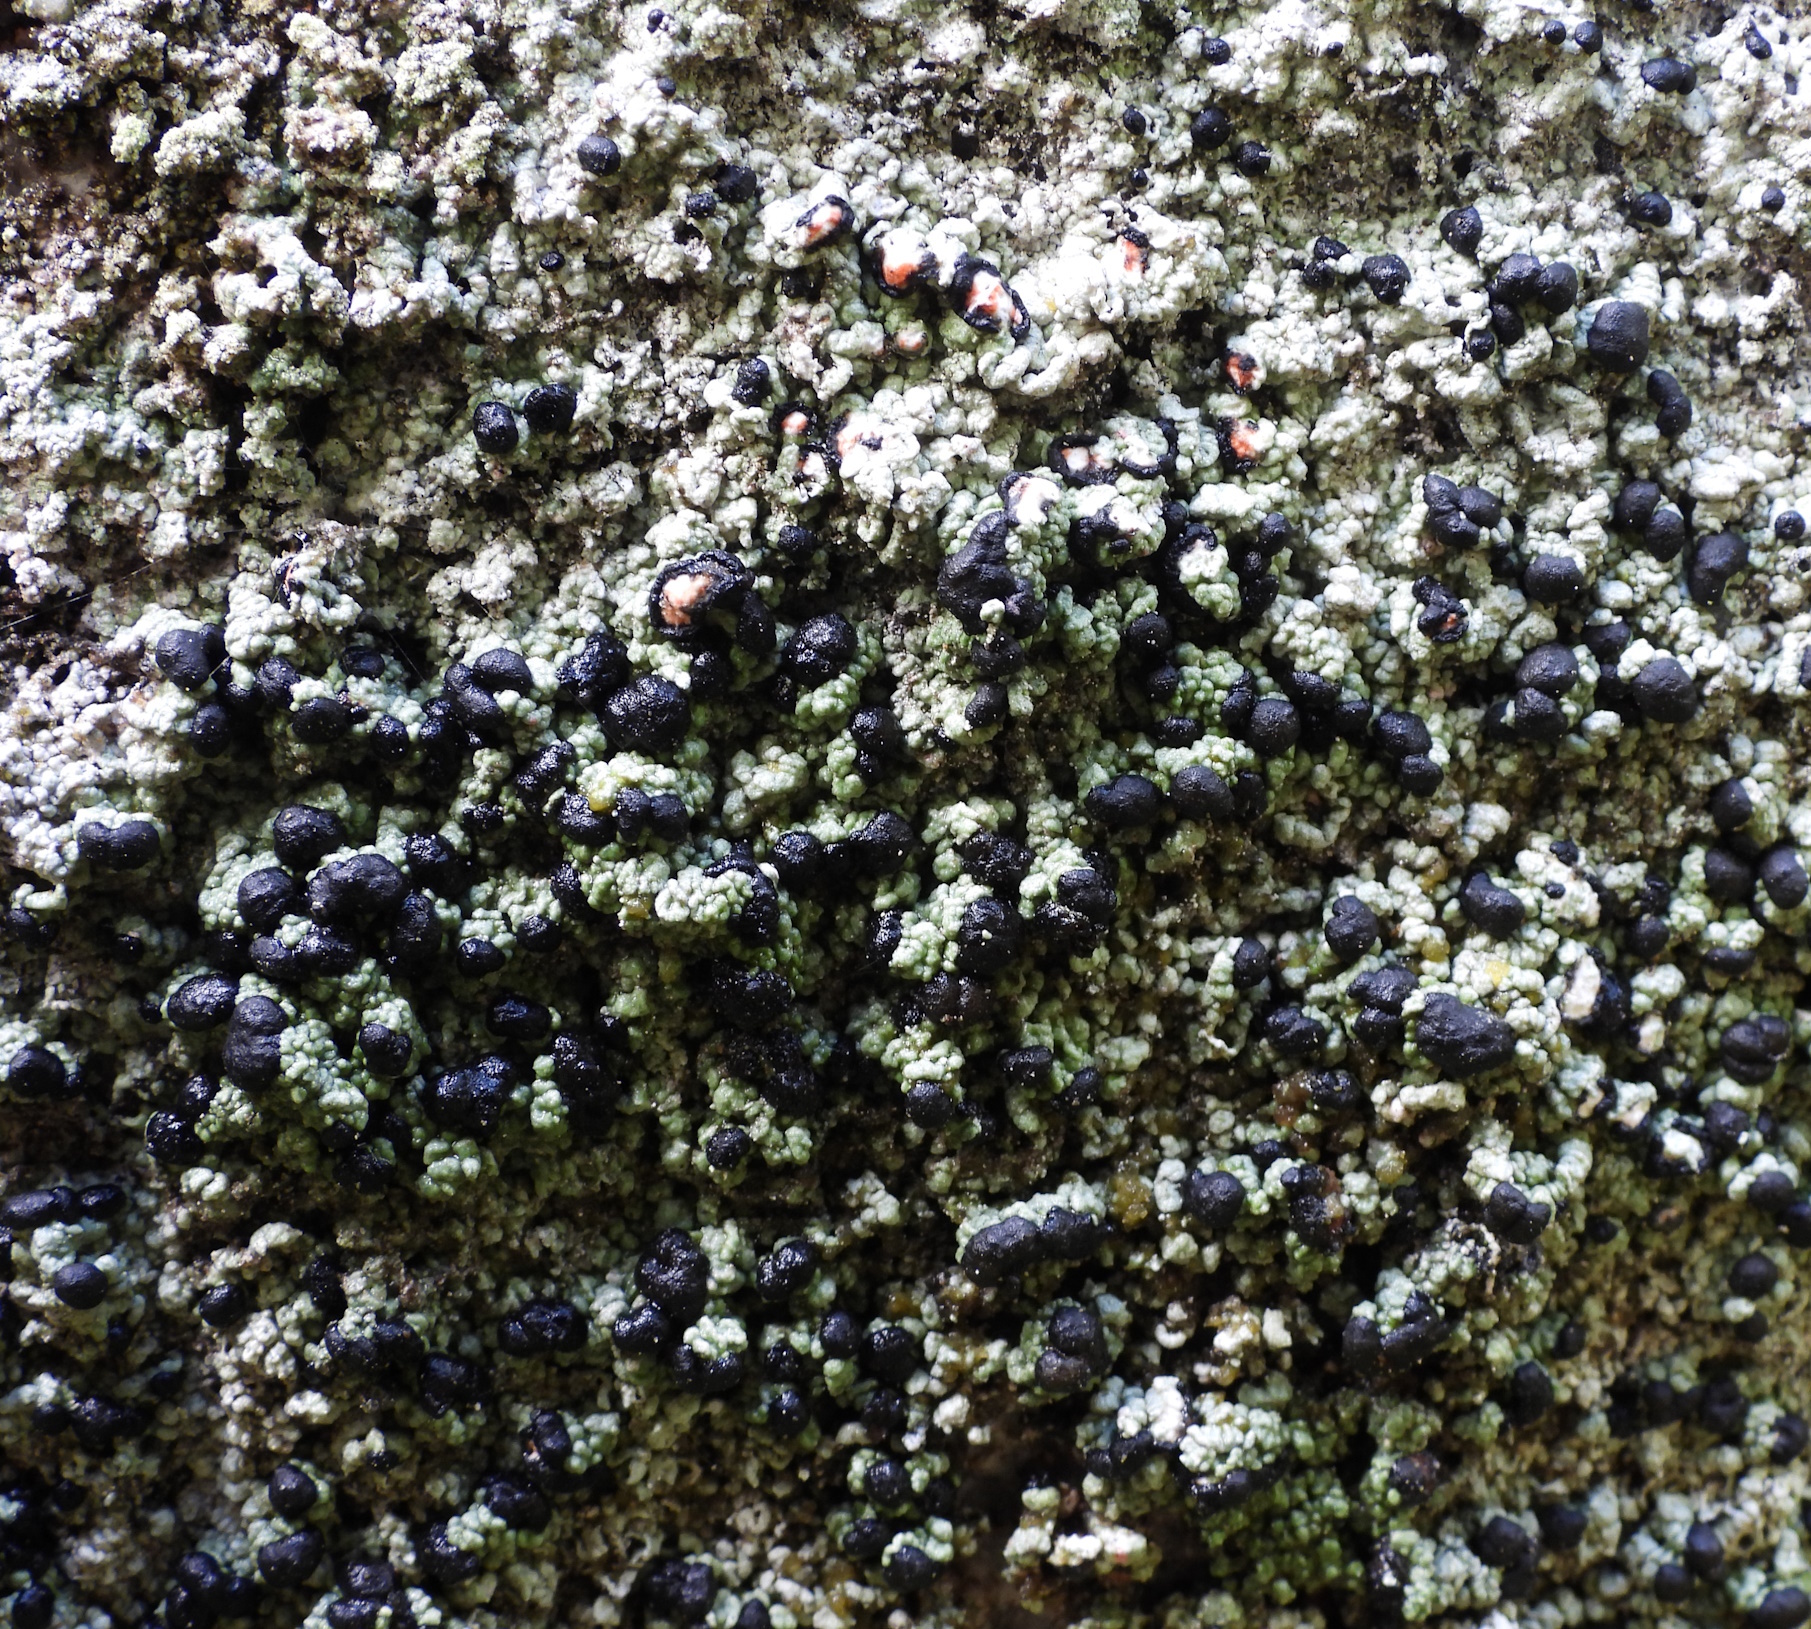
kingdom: Fungi
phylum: Ascomycota
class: Lecanoromycetes
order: Lecanorales
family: Tephromelataceae
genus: Mycoblastus
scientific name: Mycoblastus sanguinarius
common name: Bloody-heart lichen
